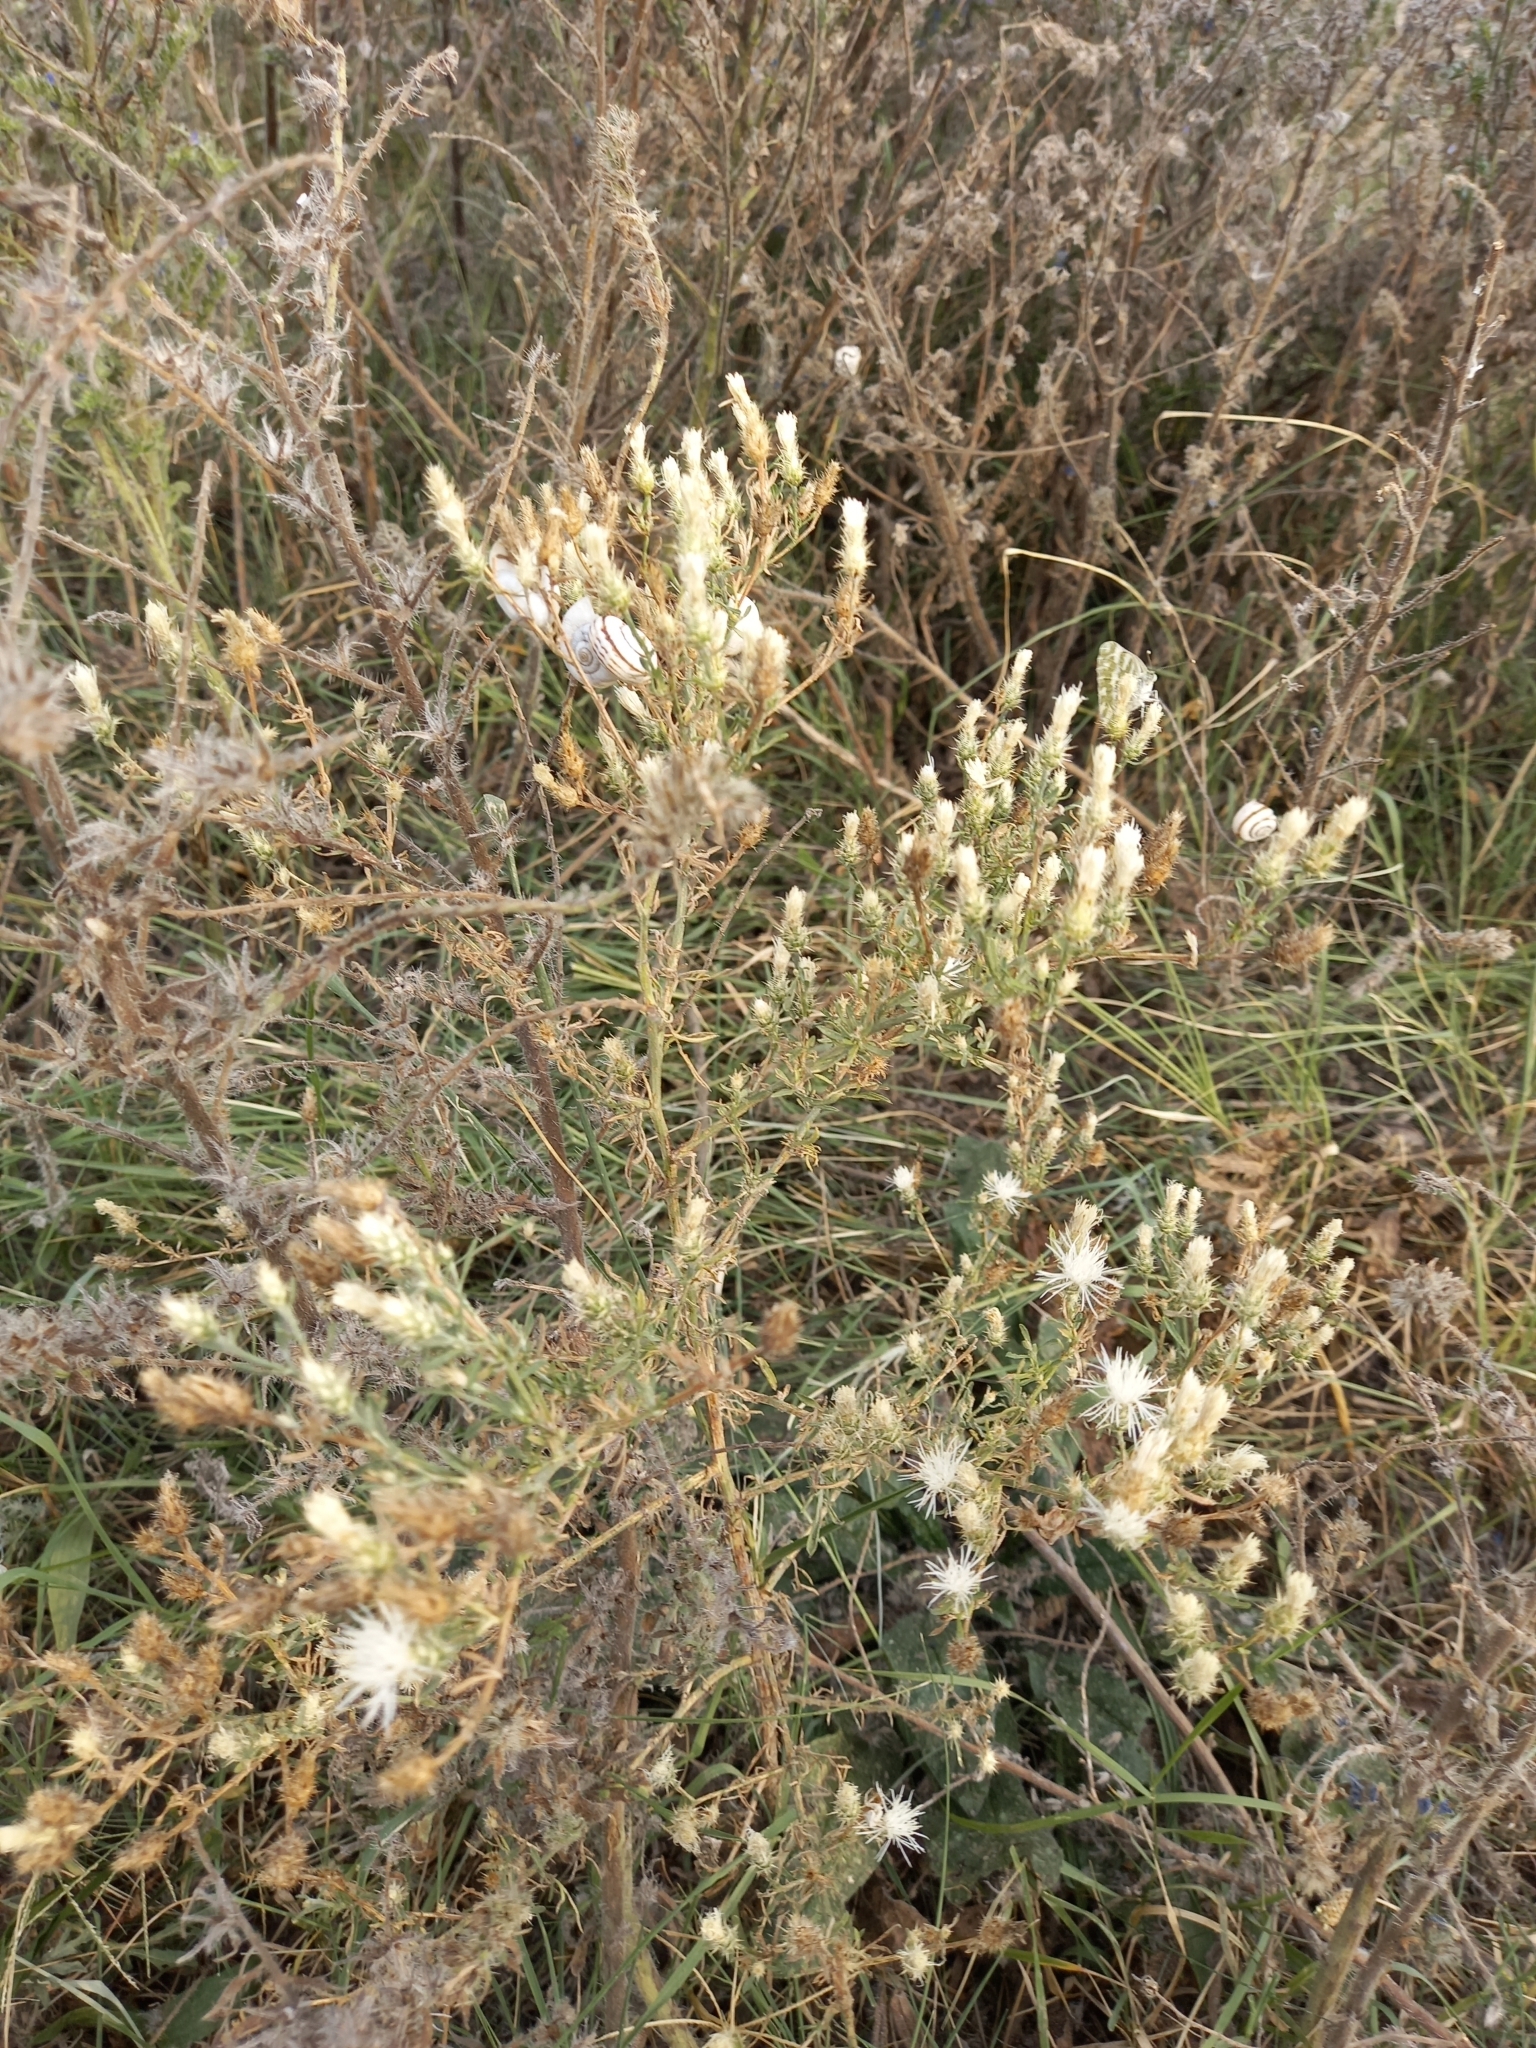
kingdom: Plantae
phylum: Tracheophyta
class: Magnoliopsida
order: Asterales
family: Asteraceae
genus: Centaurea
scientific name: Centaurea diffusa
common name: Diffuse knapweed
